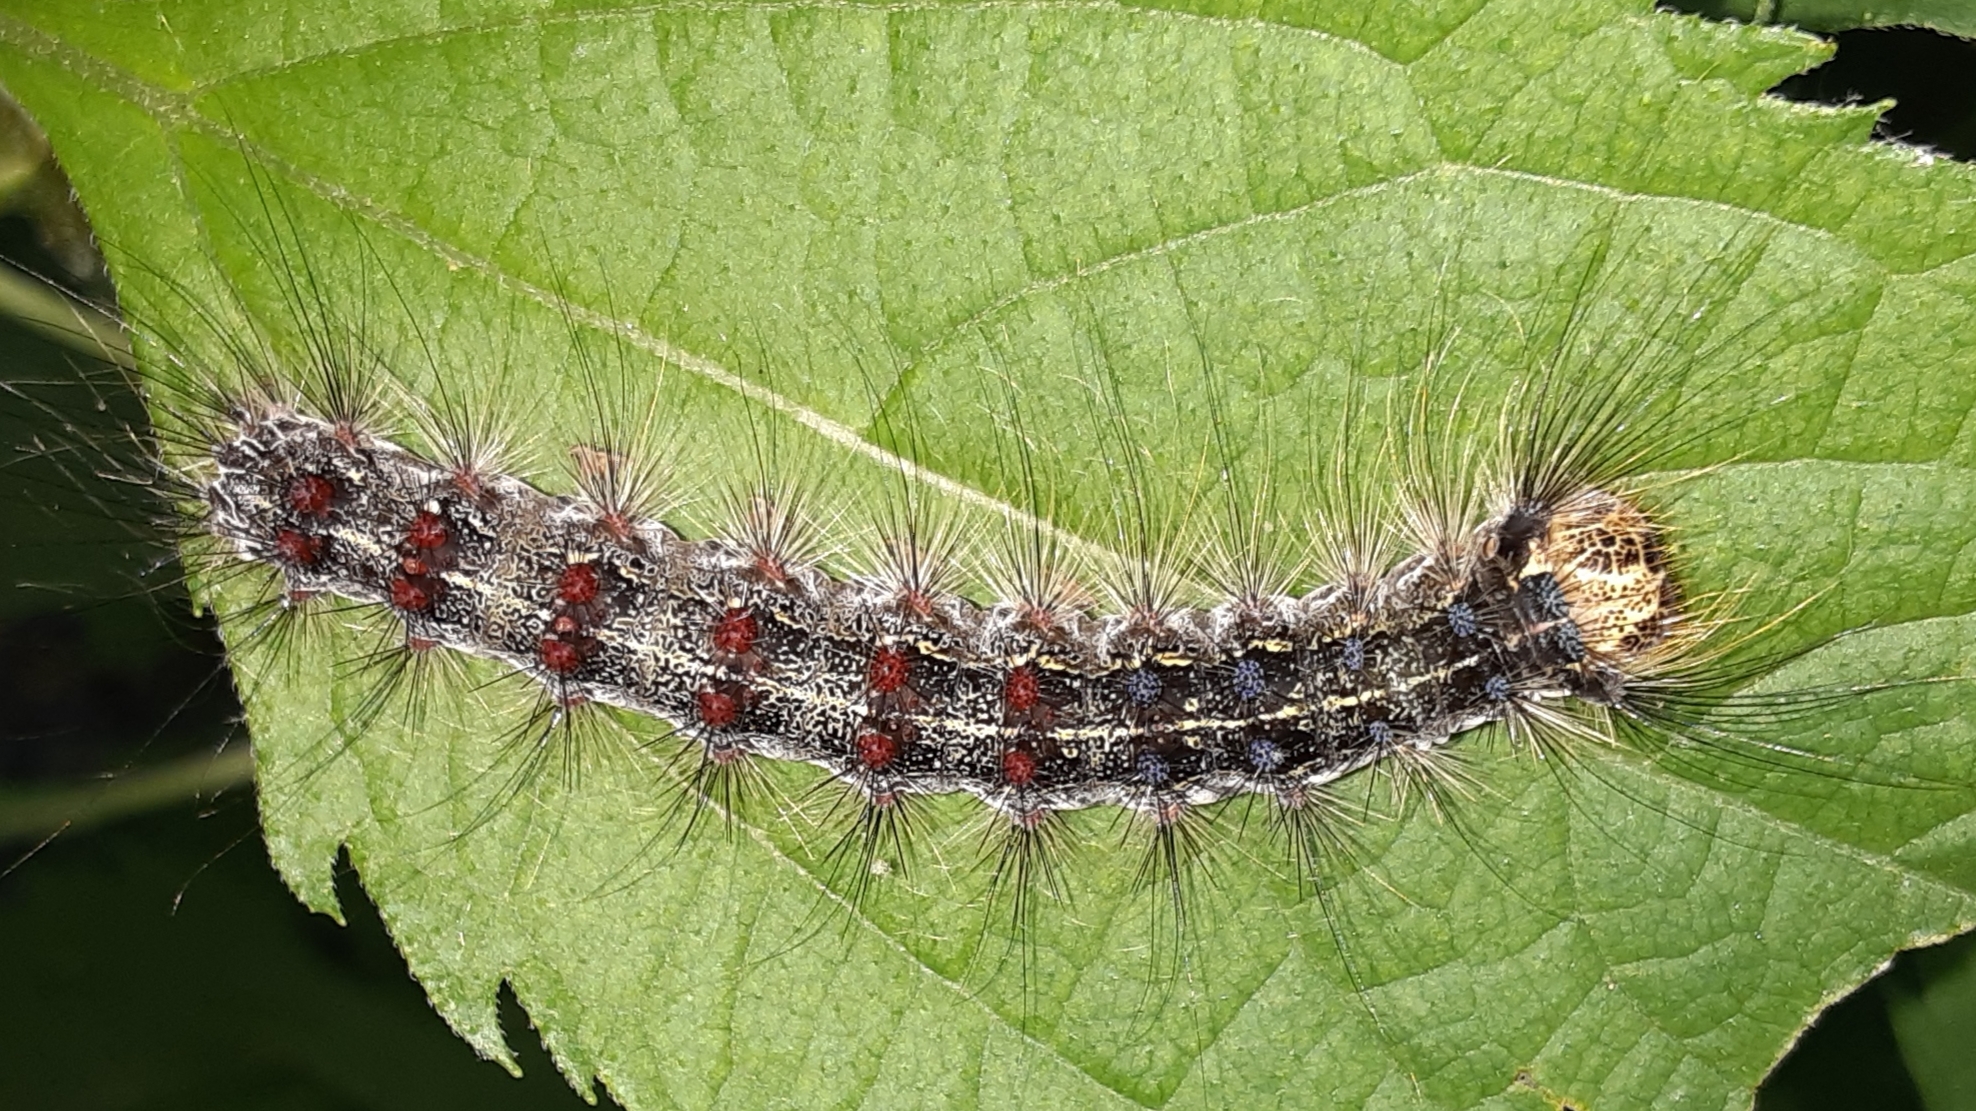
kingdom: Animalia
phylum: Arthropoda
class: Insecta
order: Lepidoptera
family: Erebidae
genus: Lymantria
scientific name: Lymantria dispar
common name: Gypsy moth
